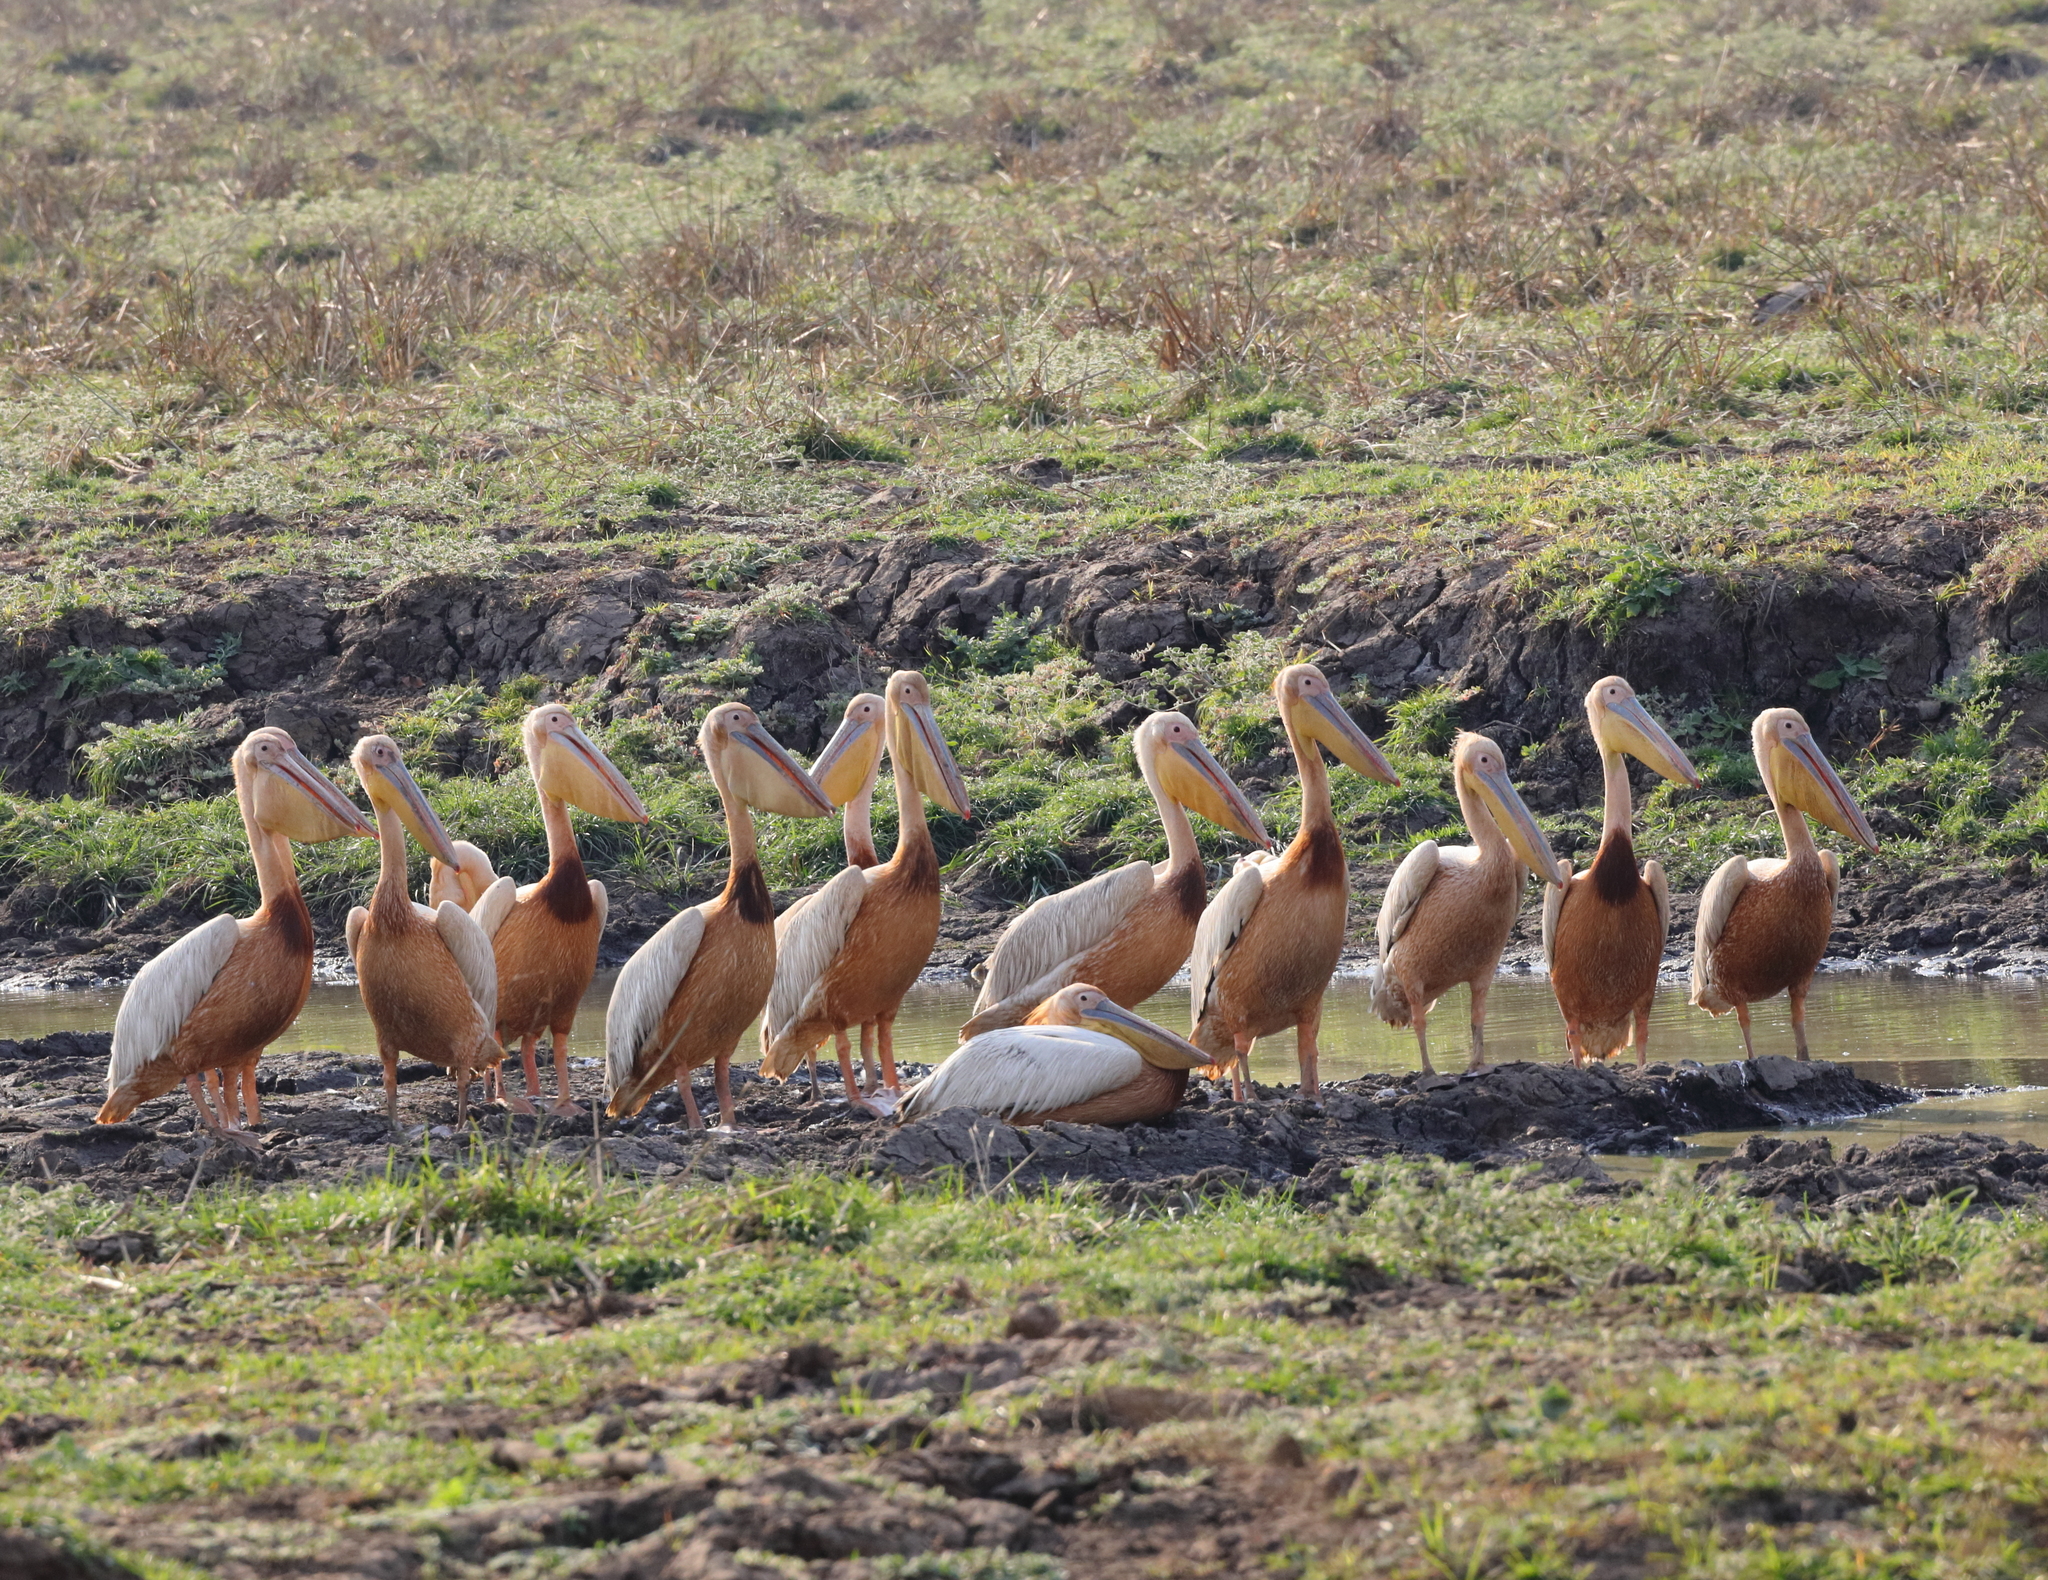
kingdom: Animalia
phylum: Chordata
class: Aves
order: Pelecaniformes
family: Pelecanidae
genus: Pelecanus
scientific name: Pelecanus onocrotalus
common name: Great white pelican
